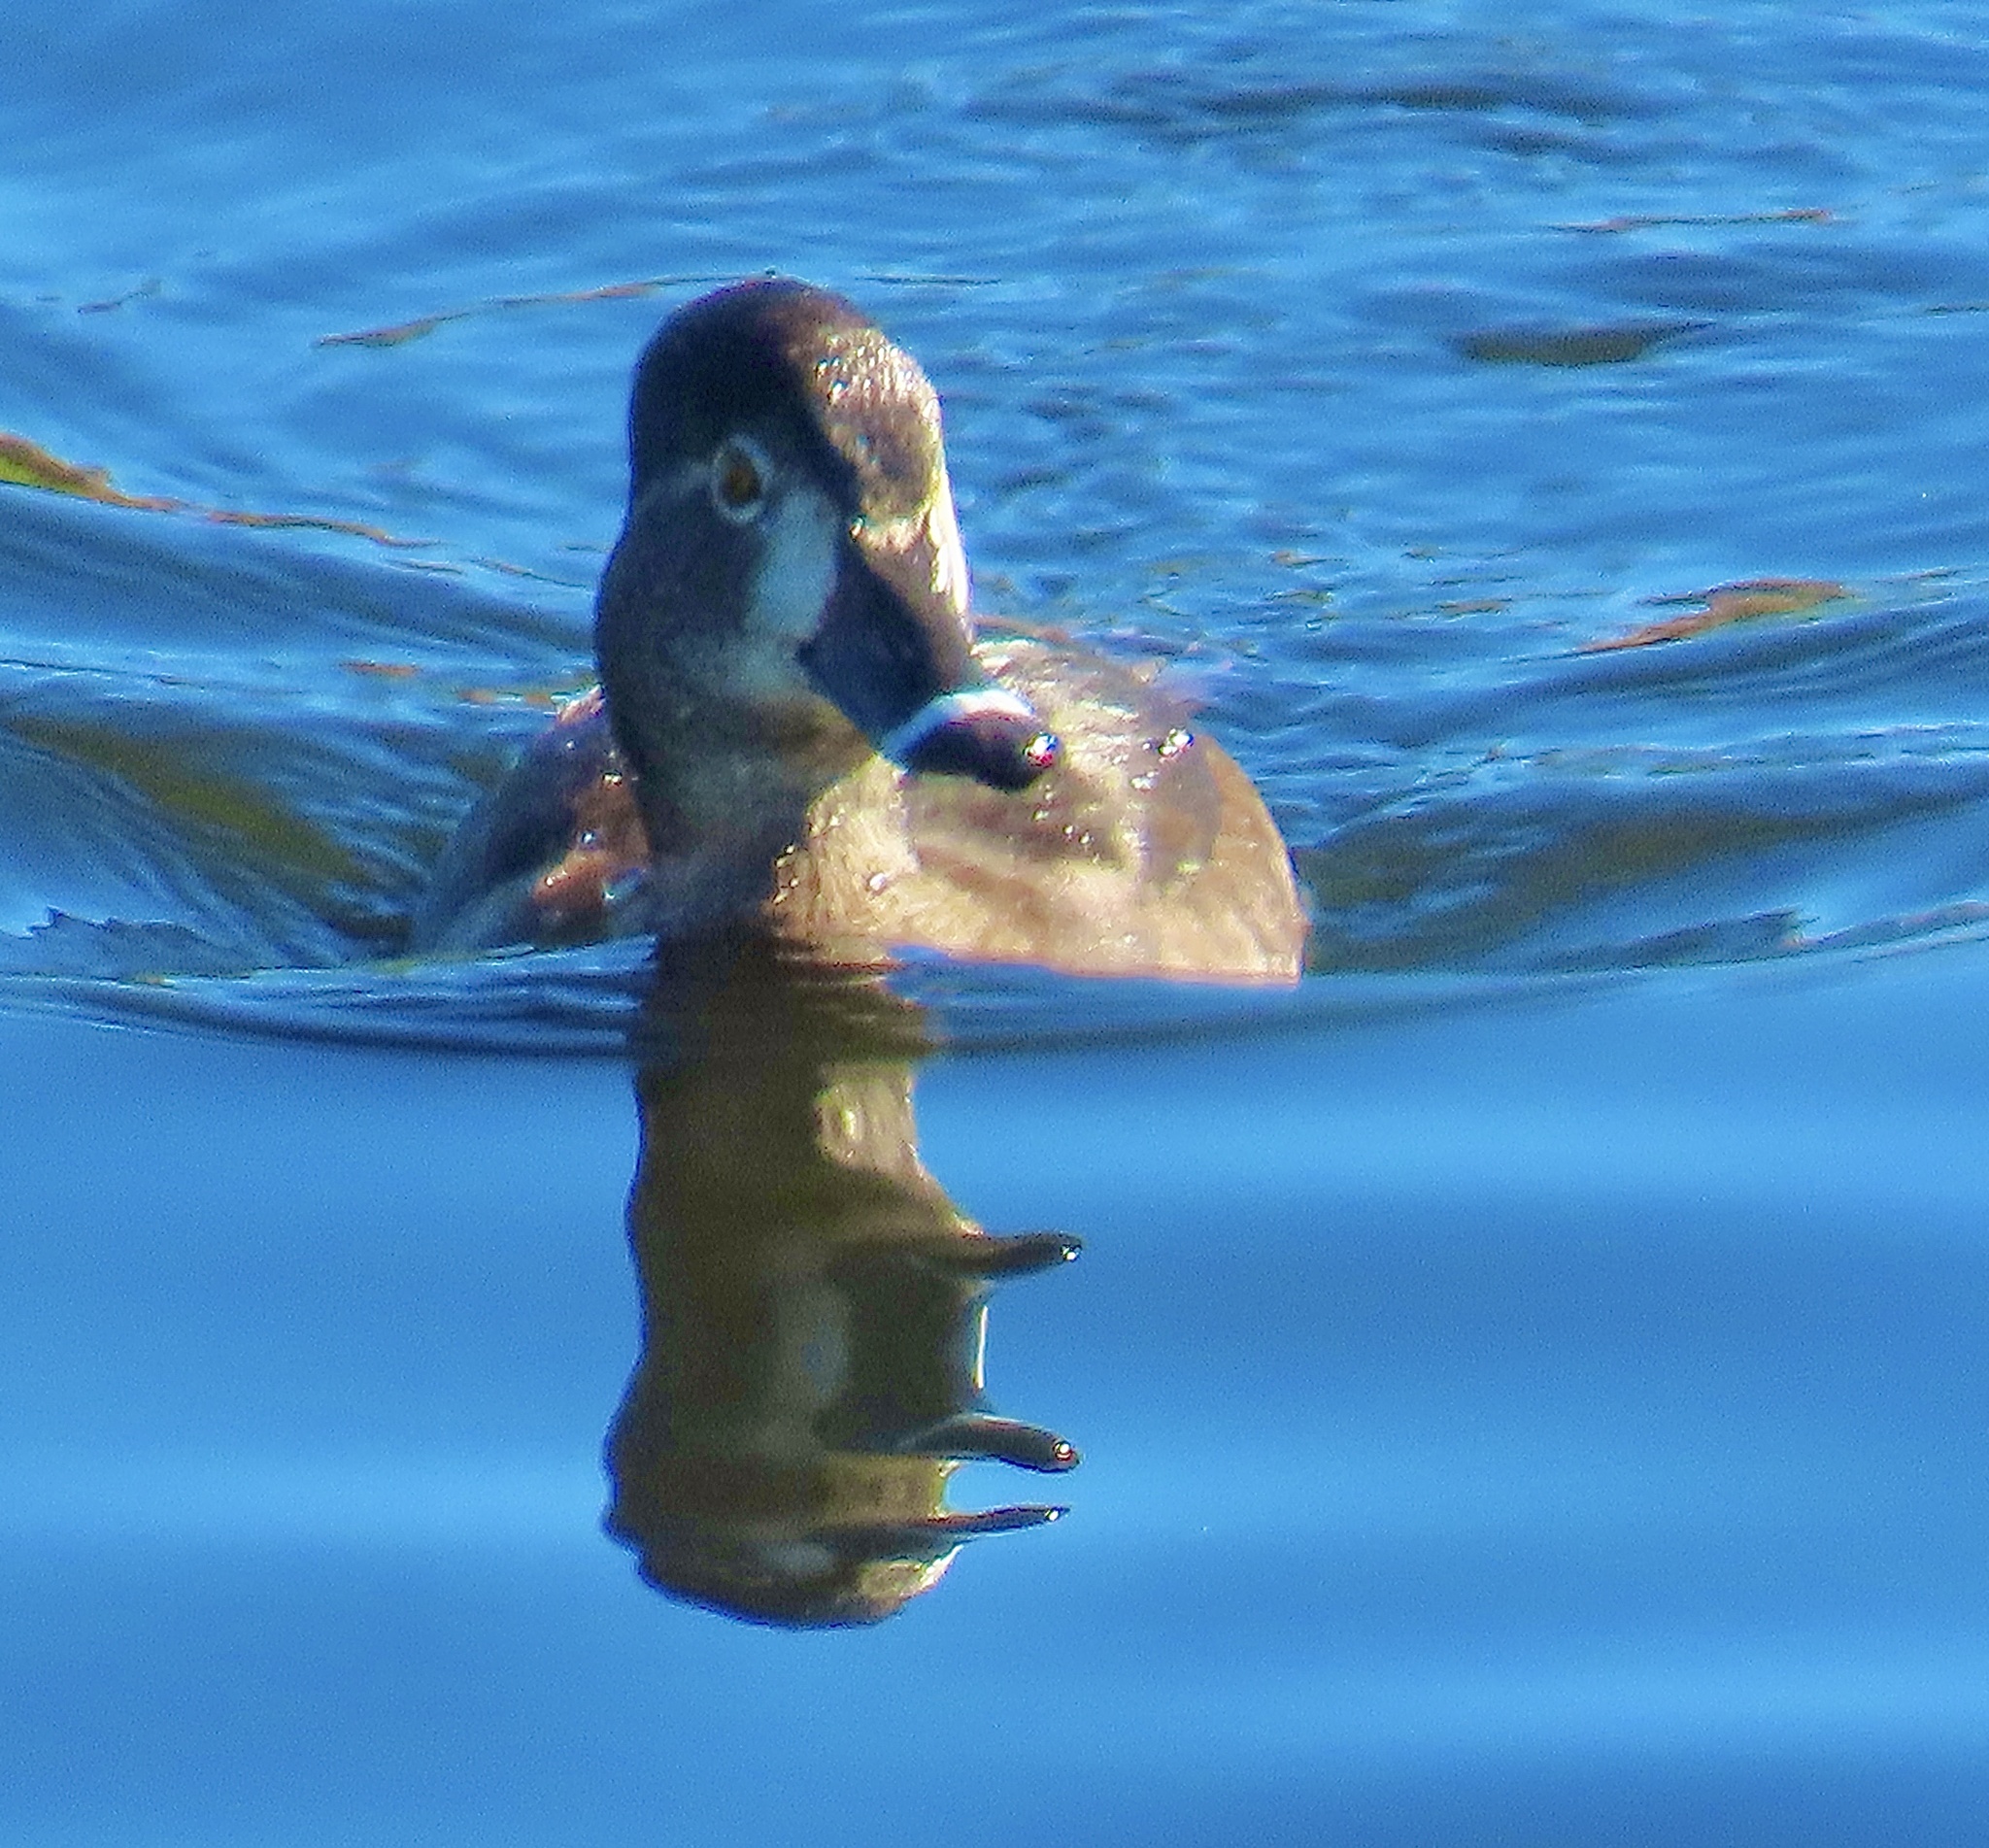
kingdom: Animalia
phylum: Chordata
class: Aves
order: Anseriformes
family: Anatidae
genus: Aythya
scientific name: Aythya collaris
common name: Ring-necked duck
